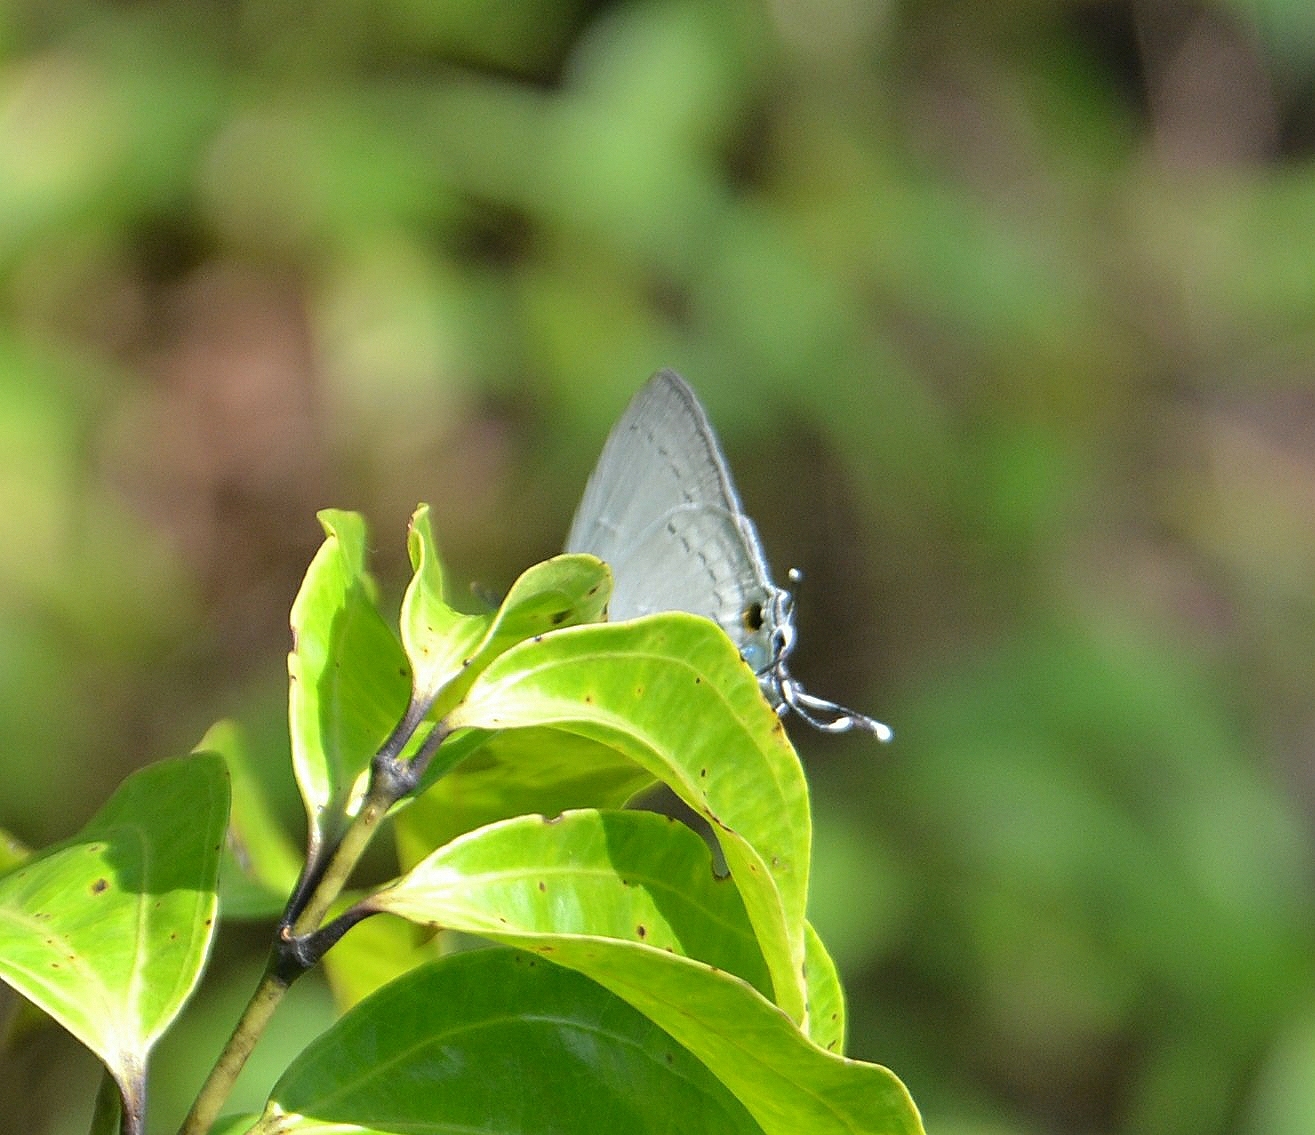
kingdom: Animalia
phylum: Arthropoda
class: Insecta
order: Lepidoptera
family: Lycaenidae
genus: Tajuria
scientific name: Tajuria cippus
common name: Peacock royal
